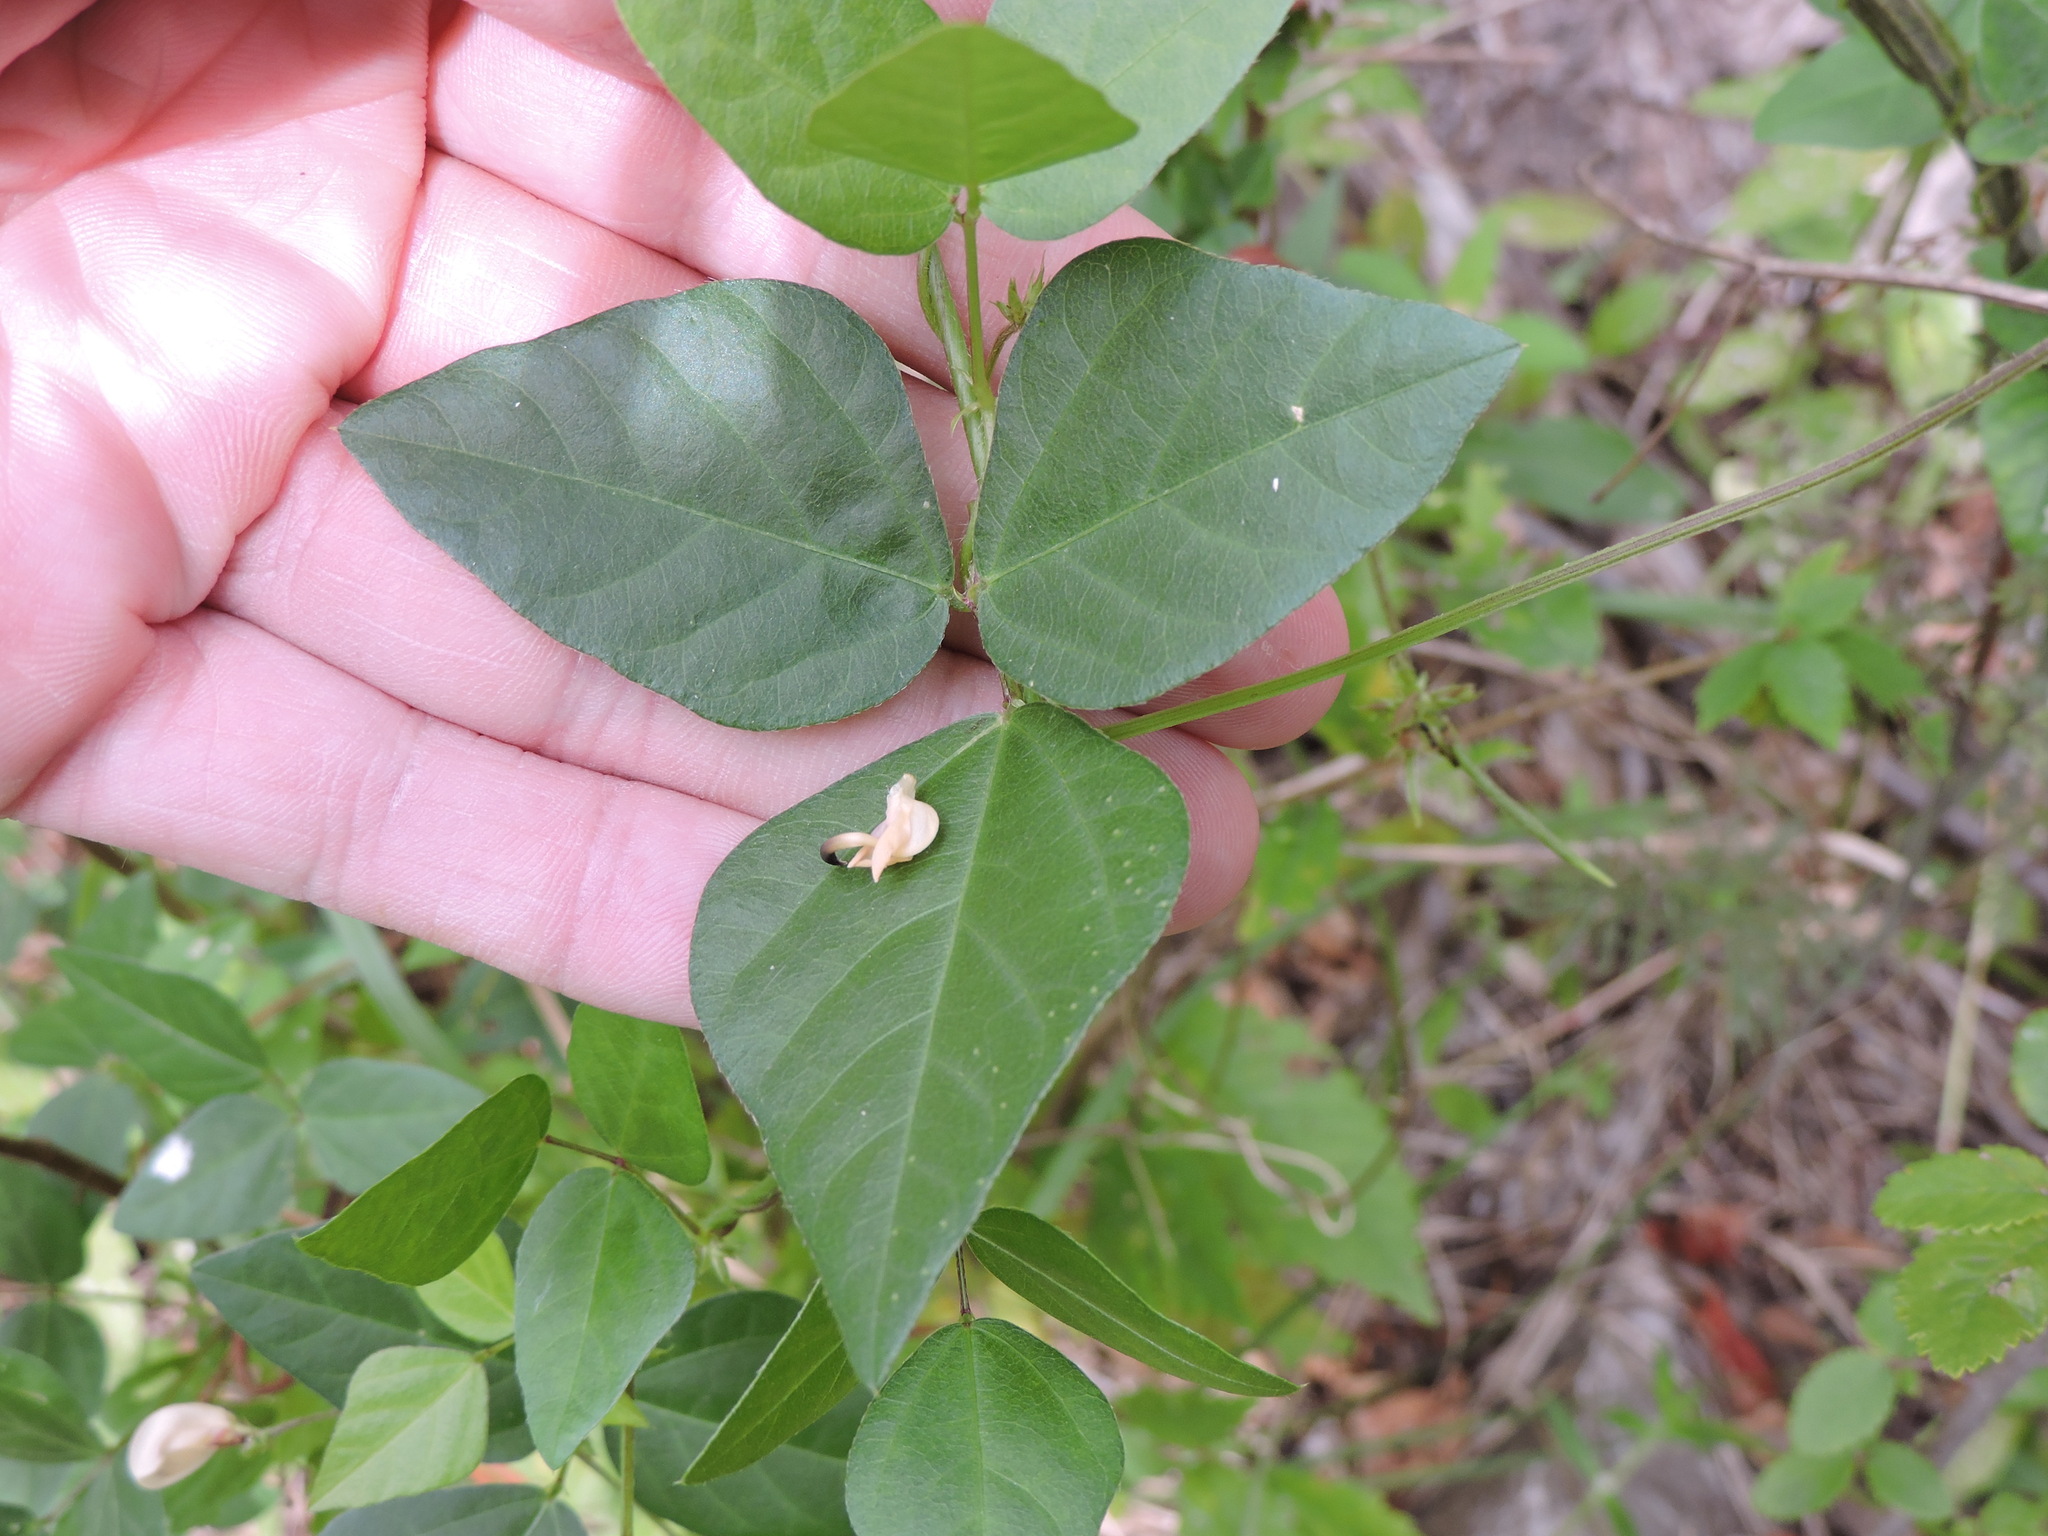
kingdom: Plantae
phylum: Tracheophyta
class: Magnoliopsida
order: Fabales
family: Fabaceae
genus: Strophostyles
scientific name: Strophostyles helvola
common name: Trailing wild bean
